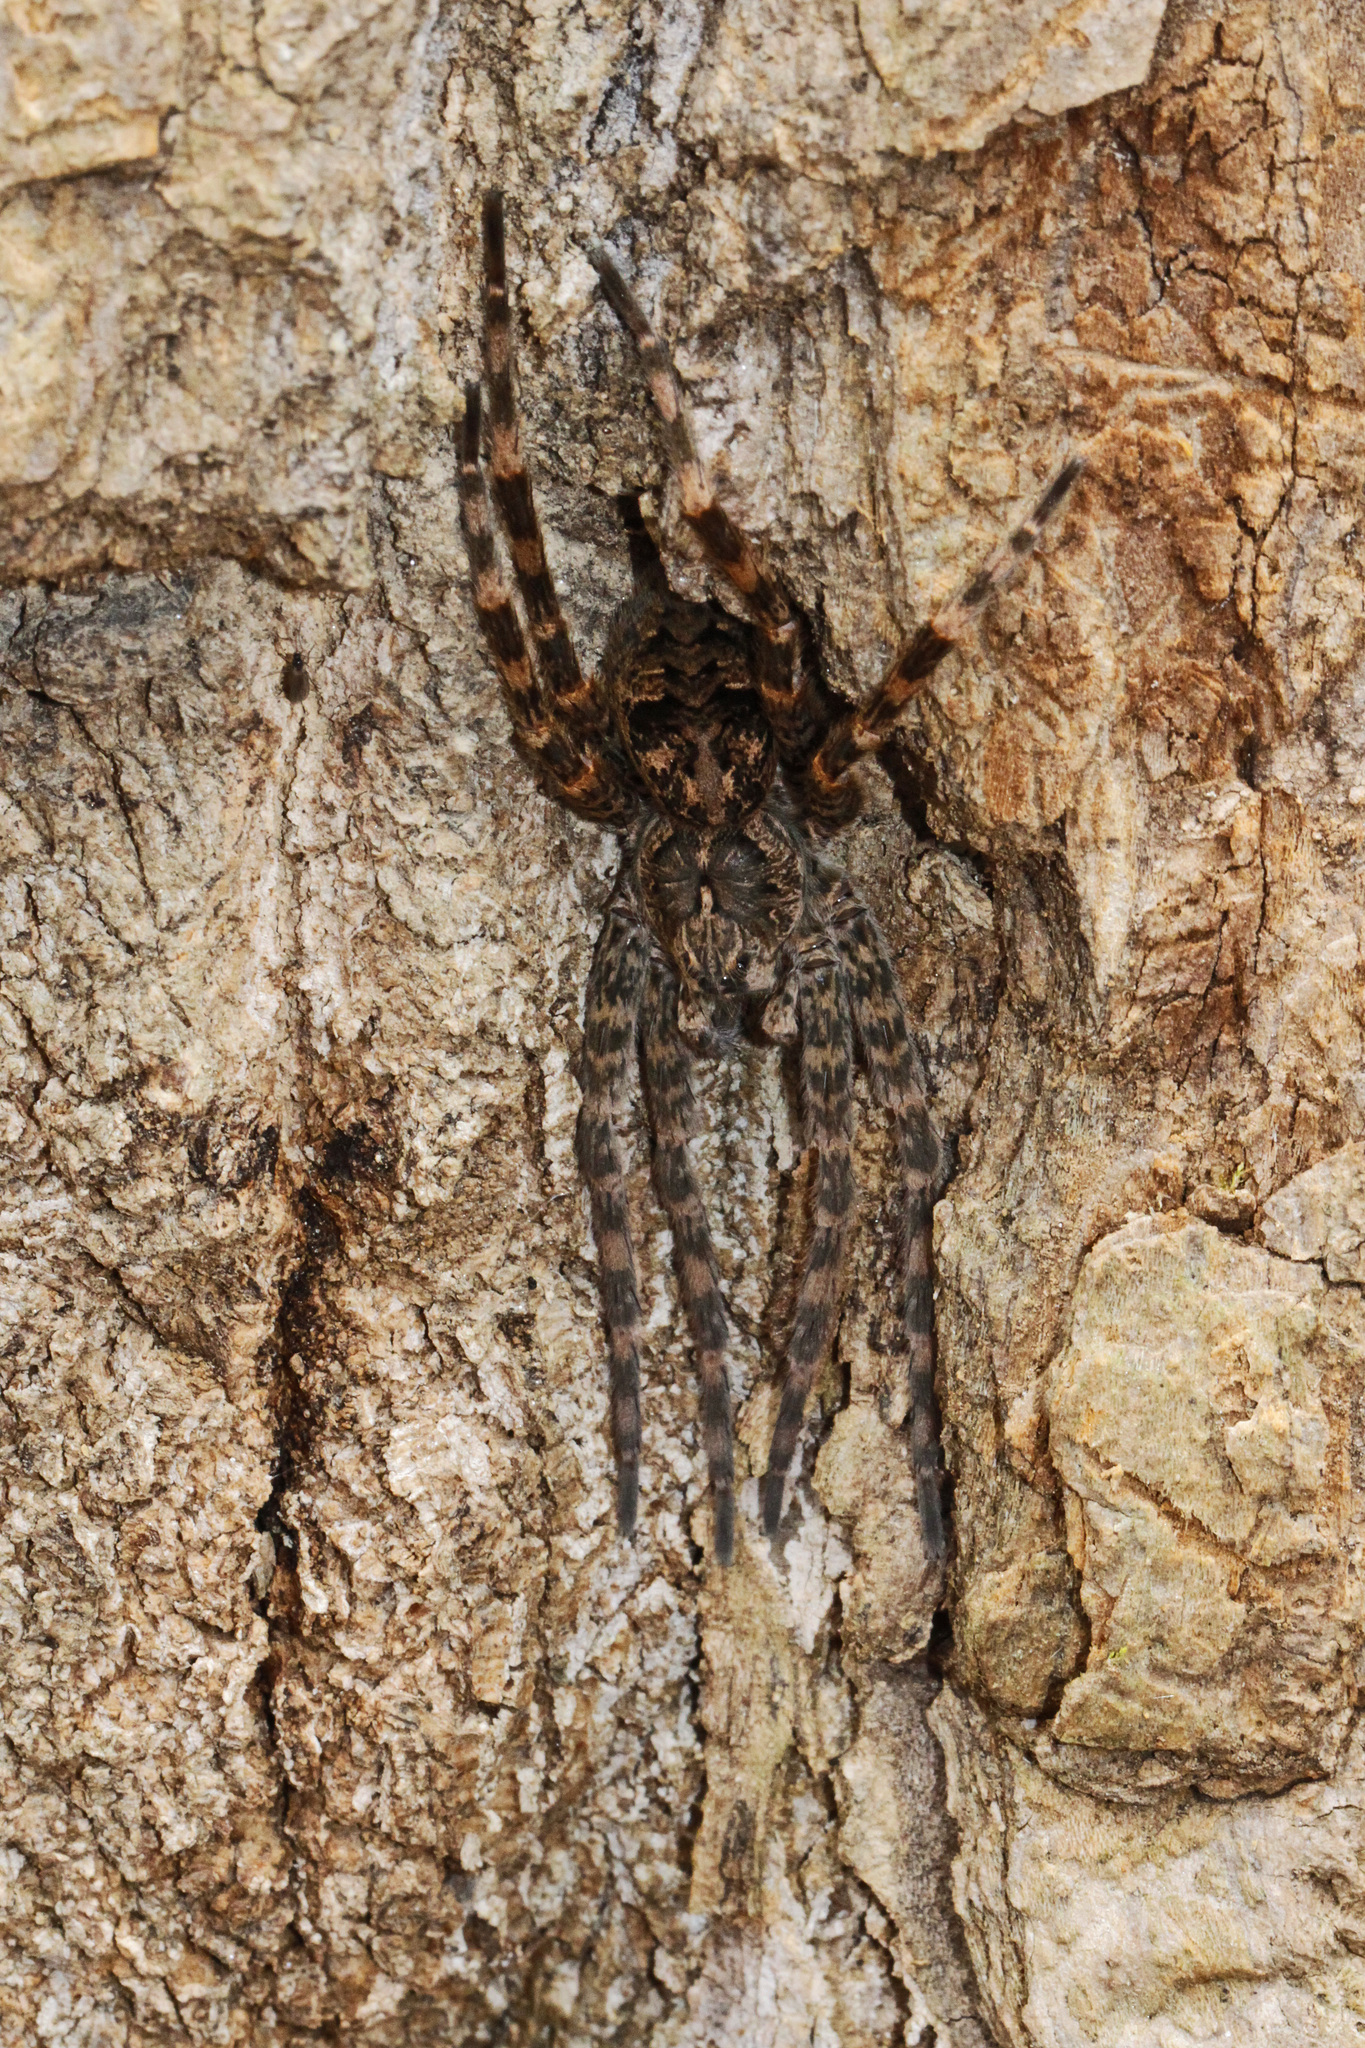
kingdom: Animalia
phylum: Arthropoda
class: Arachnida
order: Araneae
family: Pisauridae
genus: Dolomedes
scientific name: Dolomedes tenebrosus
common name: Dark fishing spider
